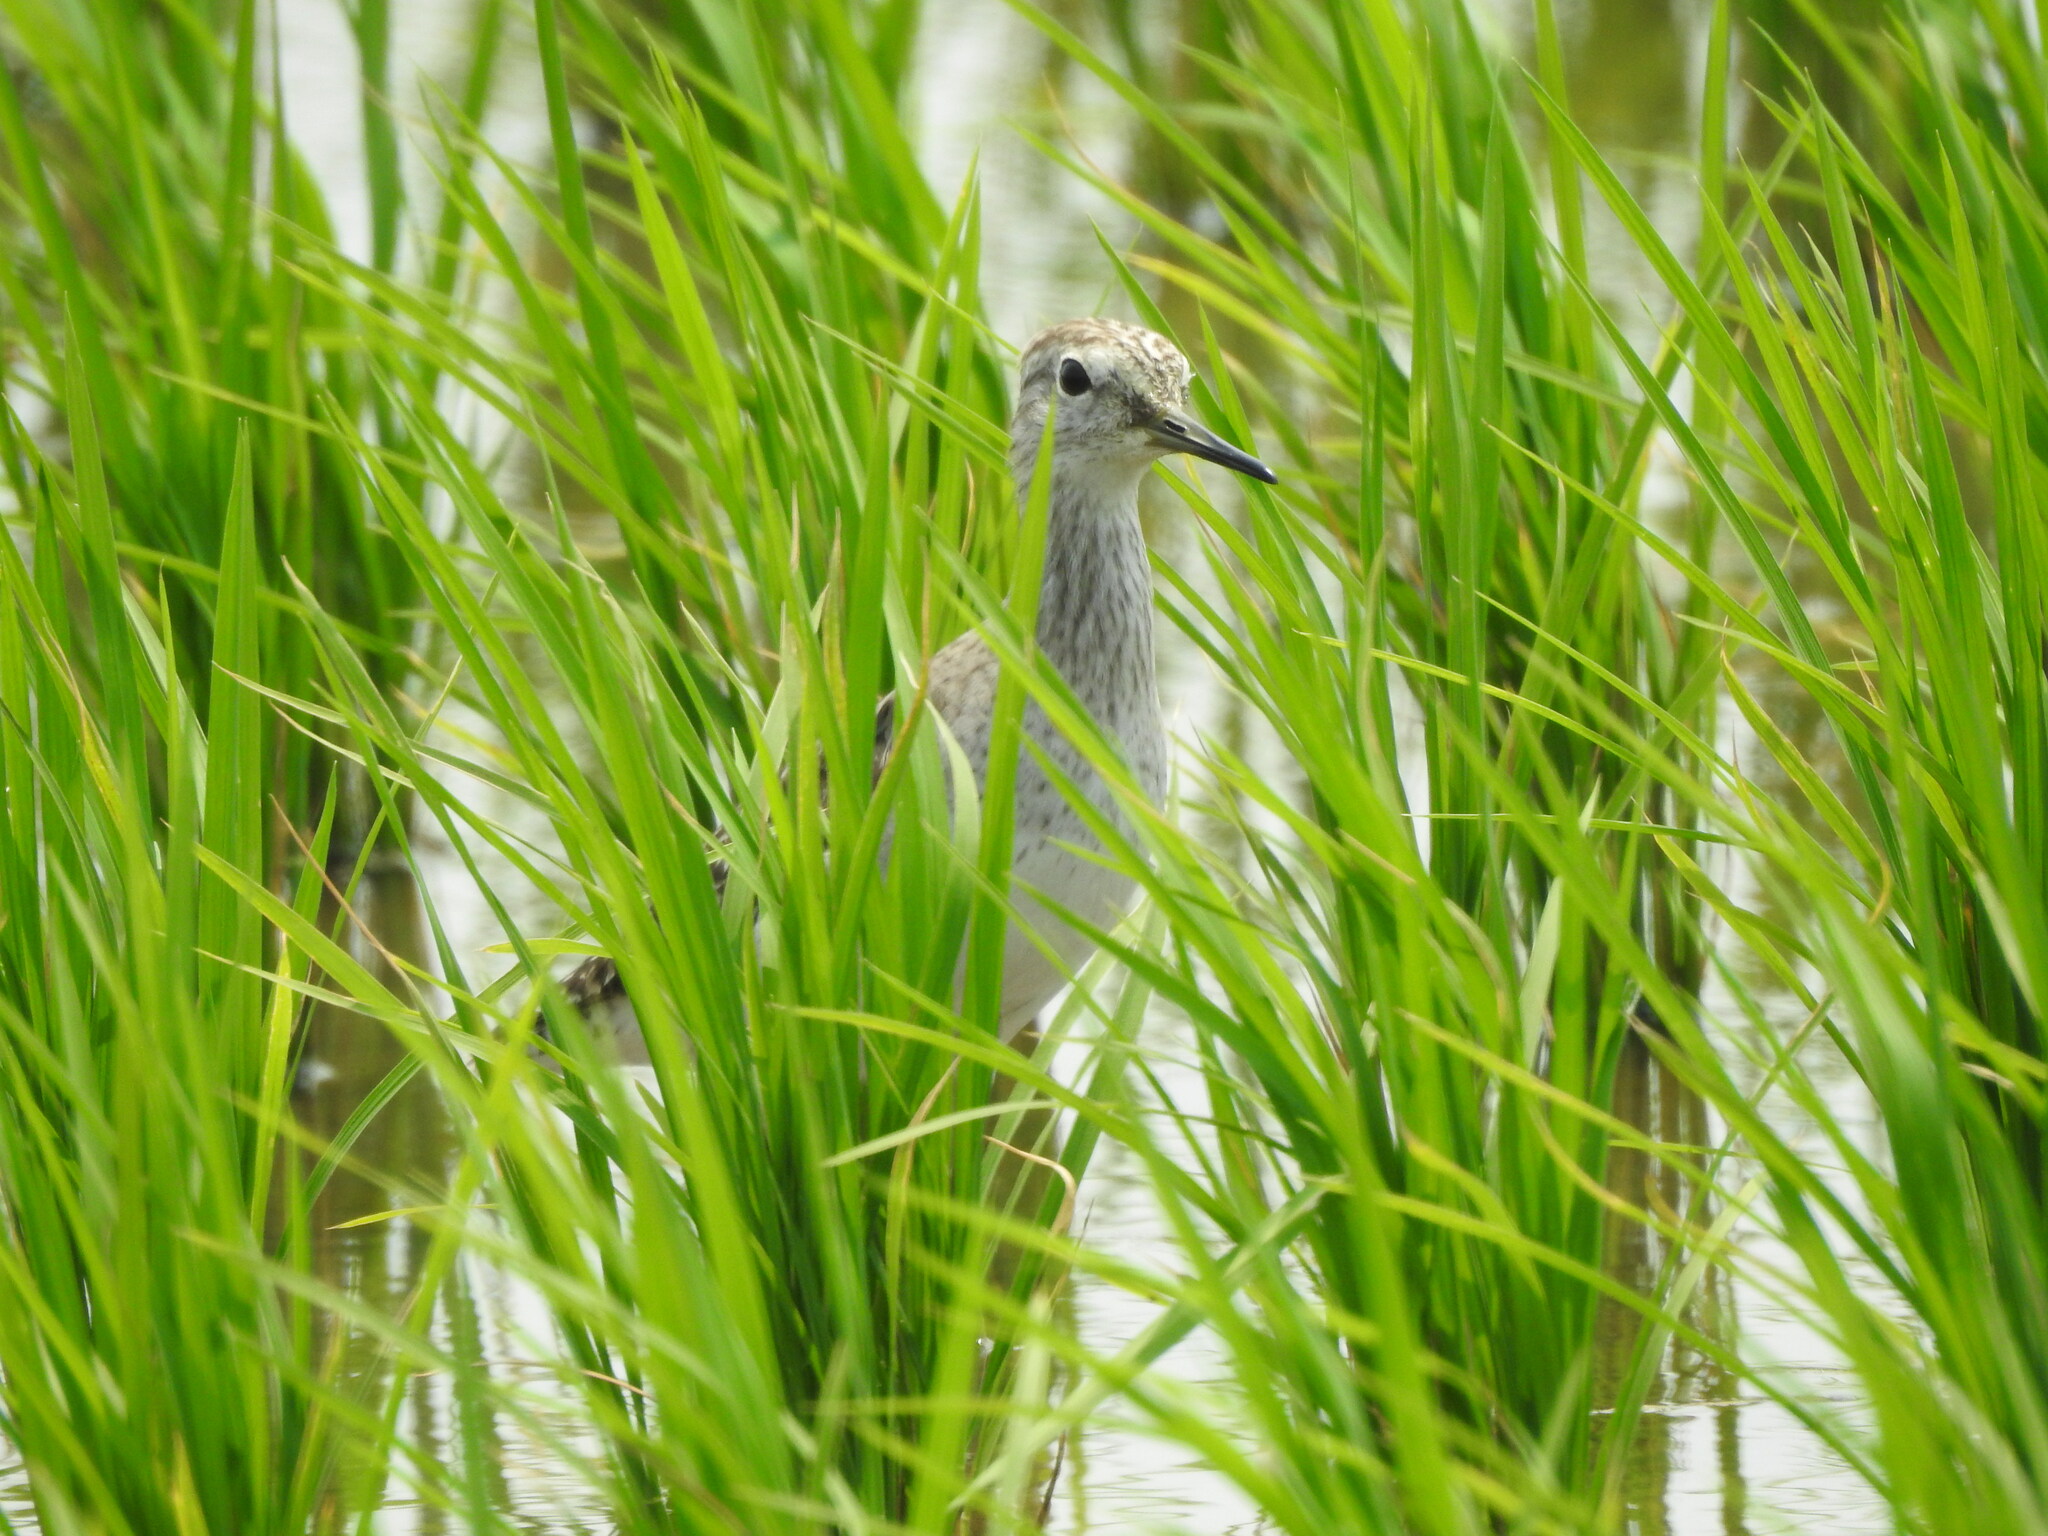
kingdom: Animalia
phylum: Chordata
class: Aves
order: Charadriiformes
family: Scolopacidae
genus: Tringa
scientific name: Tringa glareola
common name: Wood sandpiper
